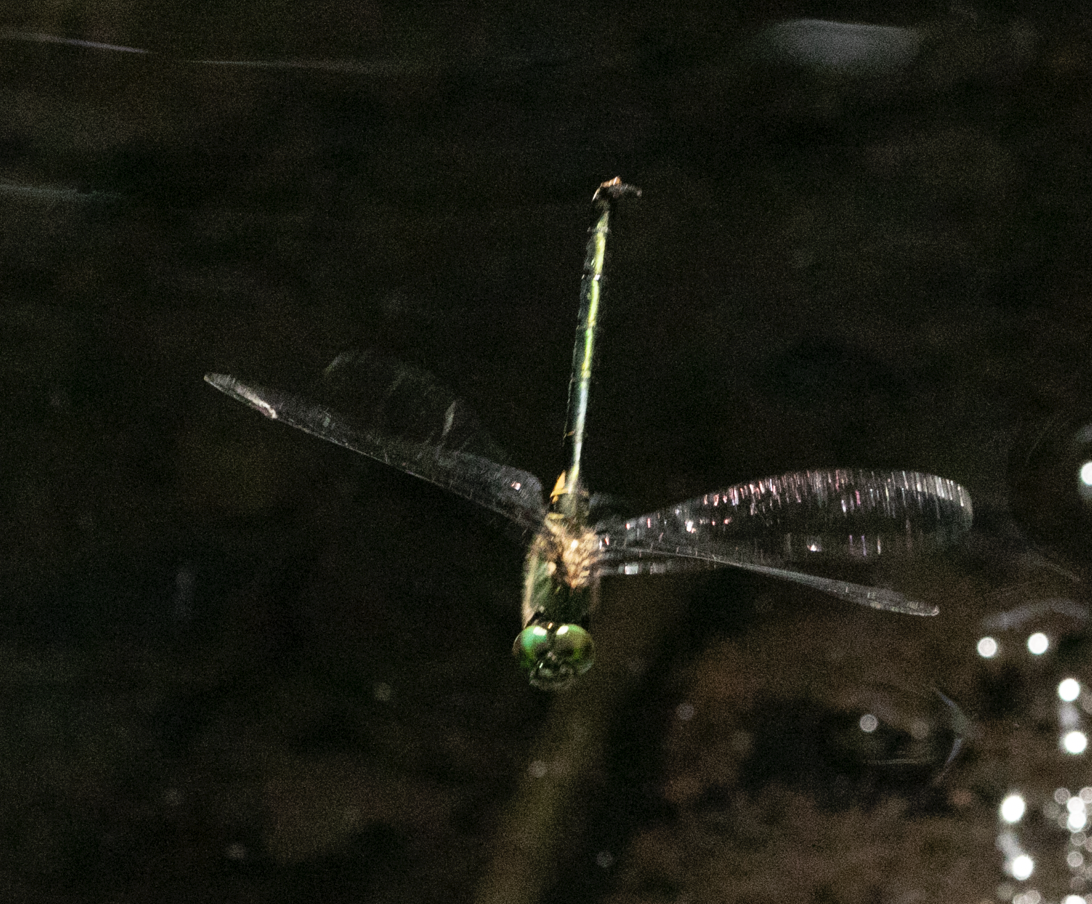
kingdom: Animalia
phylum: Arthropoda
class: Insecta
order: Odonata
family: Corduliidae
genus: Somatochlora
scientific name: Somatochlora metallica
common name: Brilliant emerald
